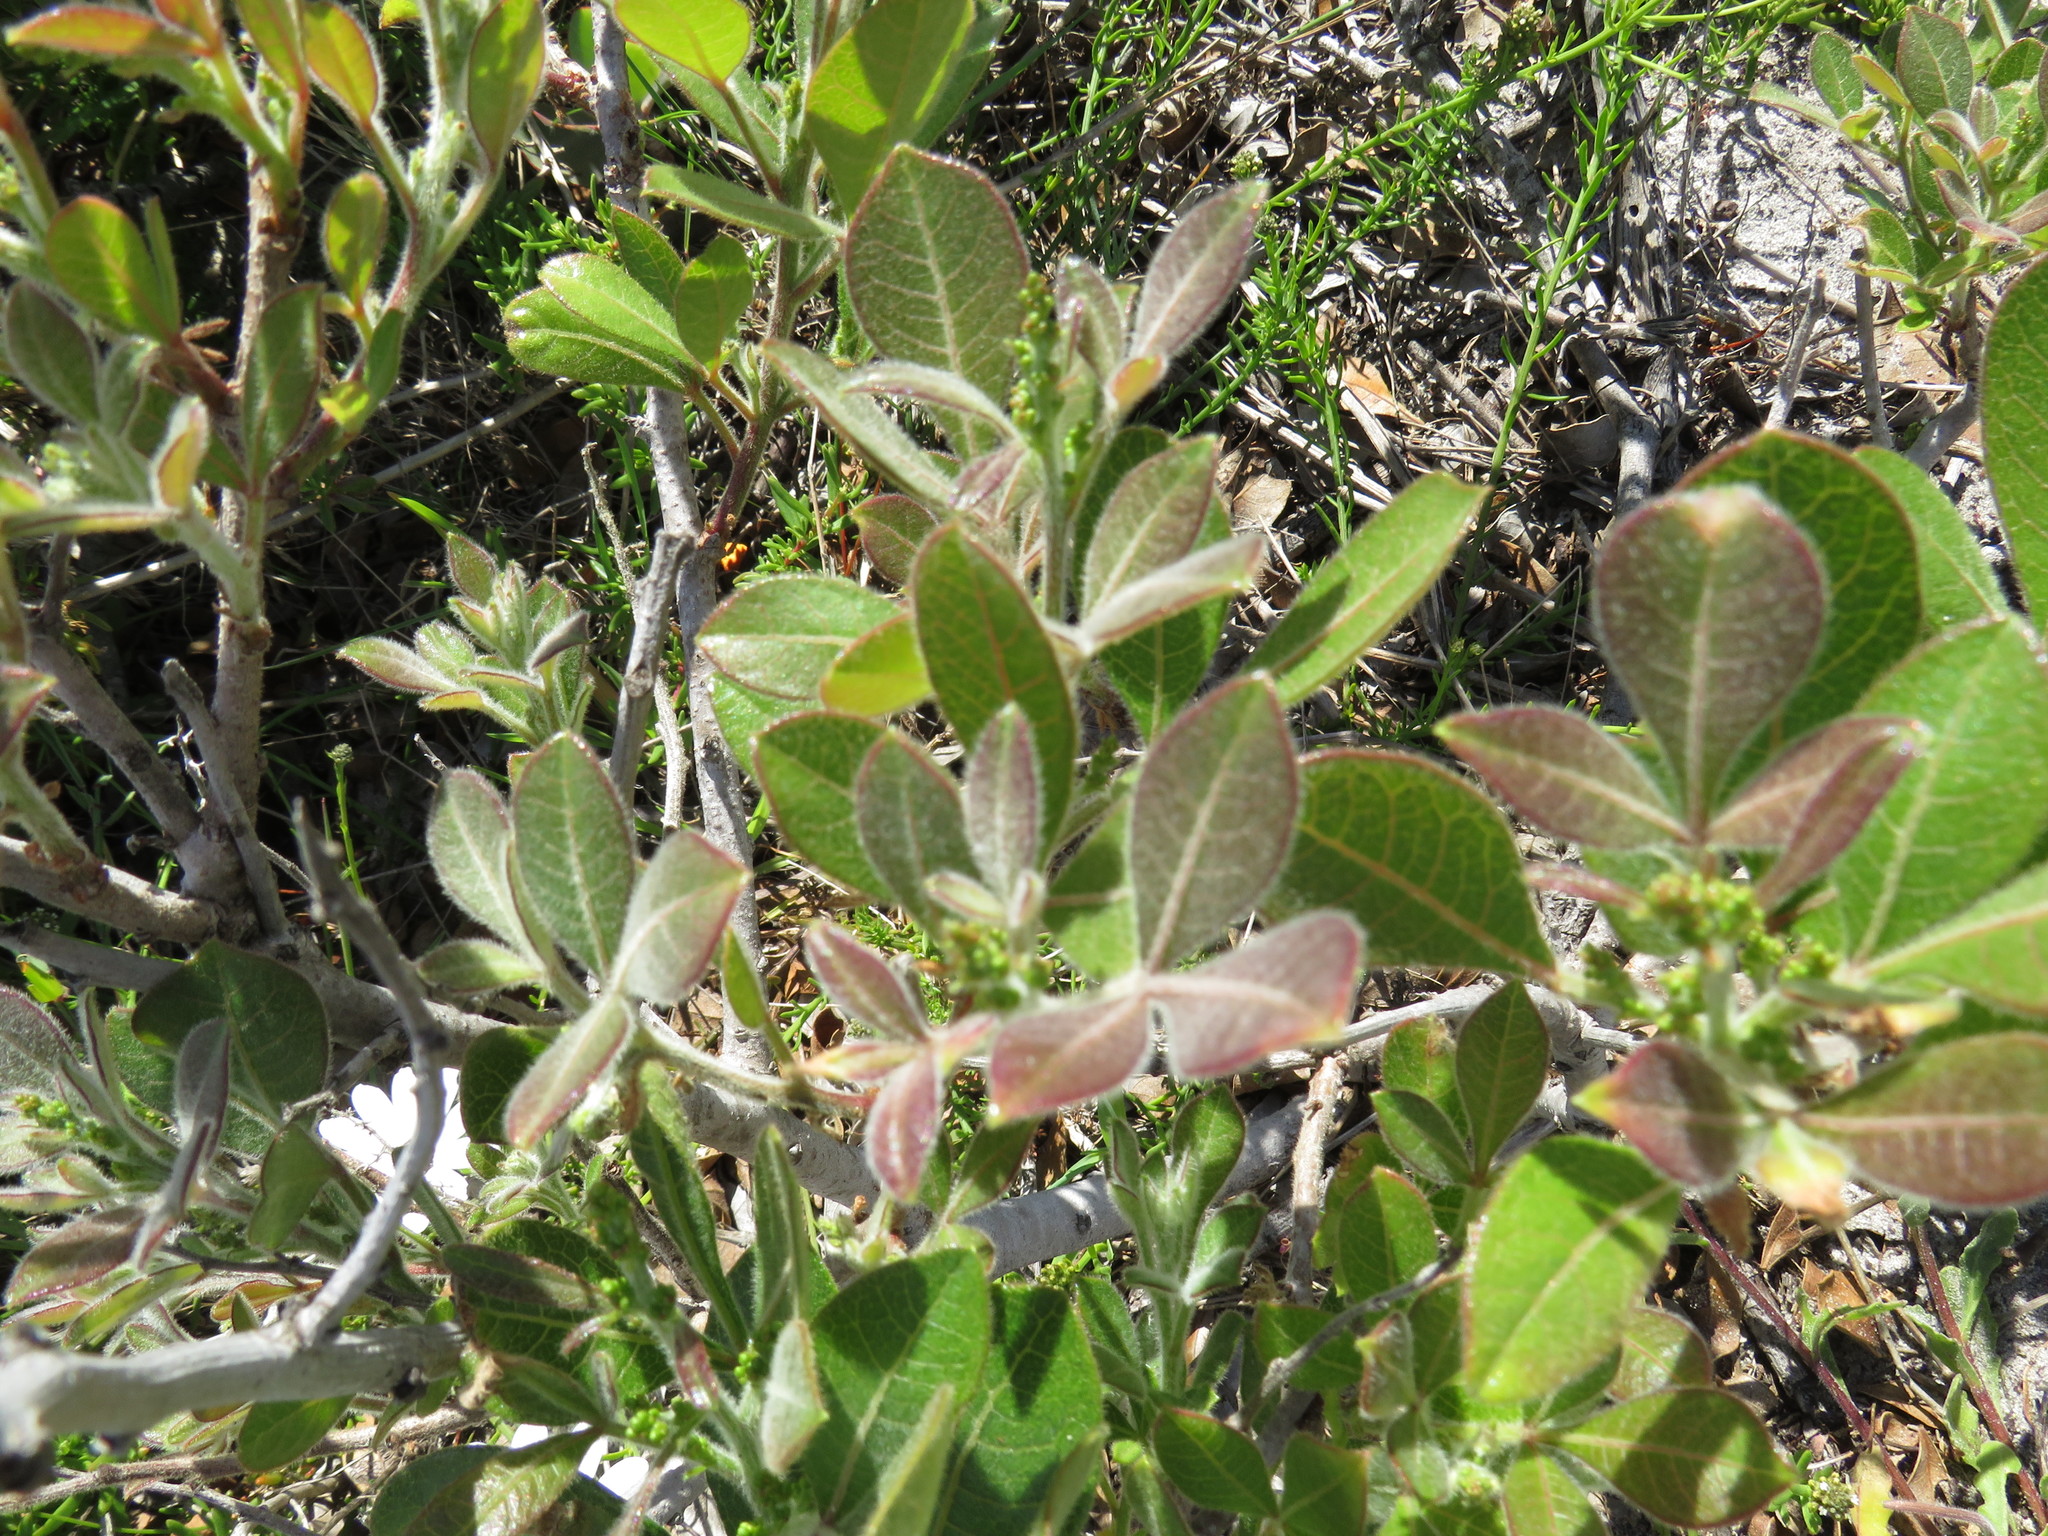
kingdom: Plantae
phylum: Tracheophyta
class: Magnoliopsida
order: Sapindales
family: Anacardiaceae
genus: Searsia
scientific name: Searsia laevigata
